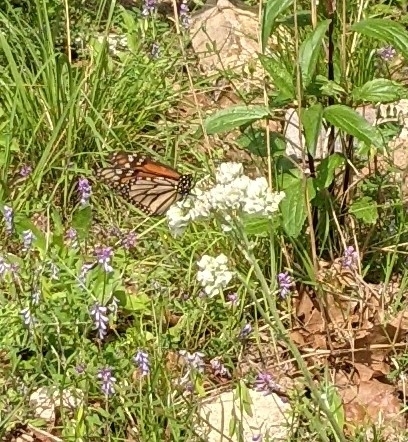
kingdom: Animalia
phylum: Arthropoda
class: Insecta
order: Lepidoptera
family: Nymphalidae
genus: Danaus
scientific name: Danaus plexippus
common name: Monarch
